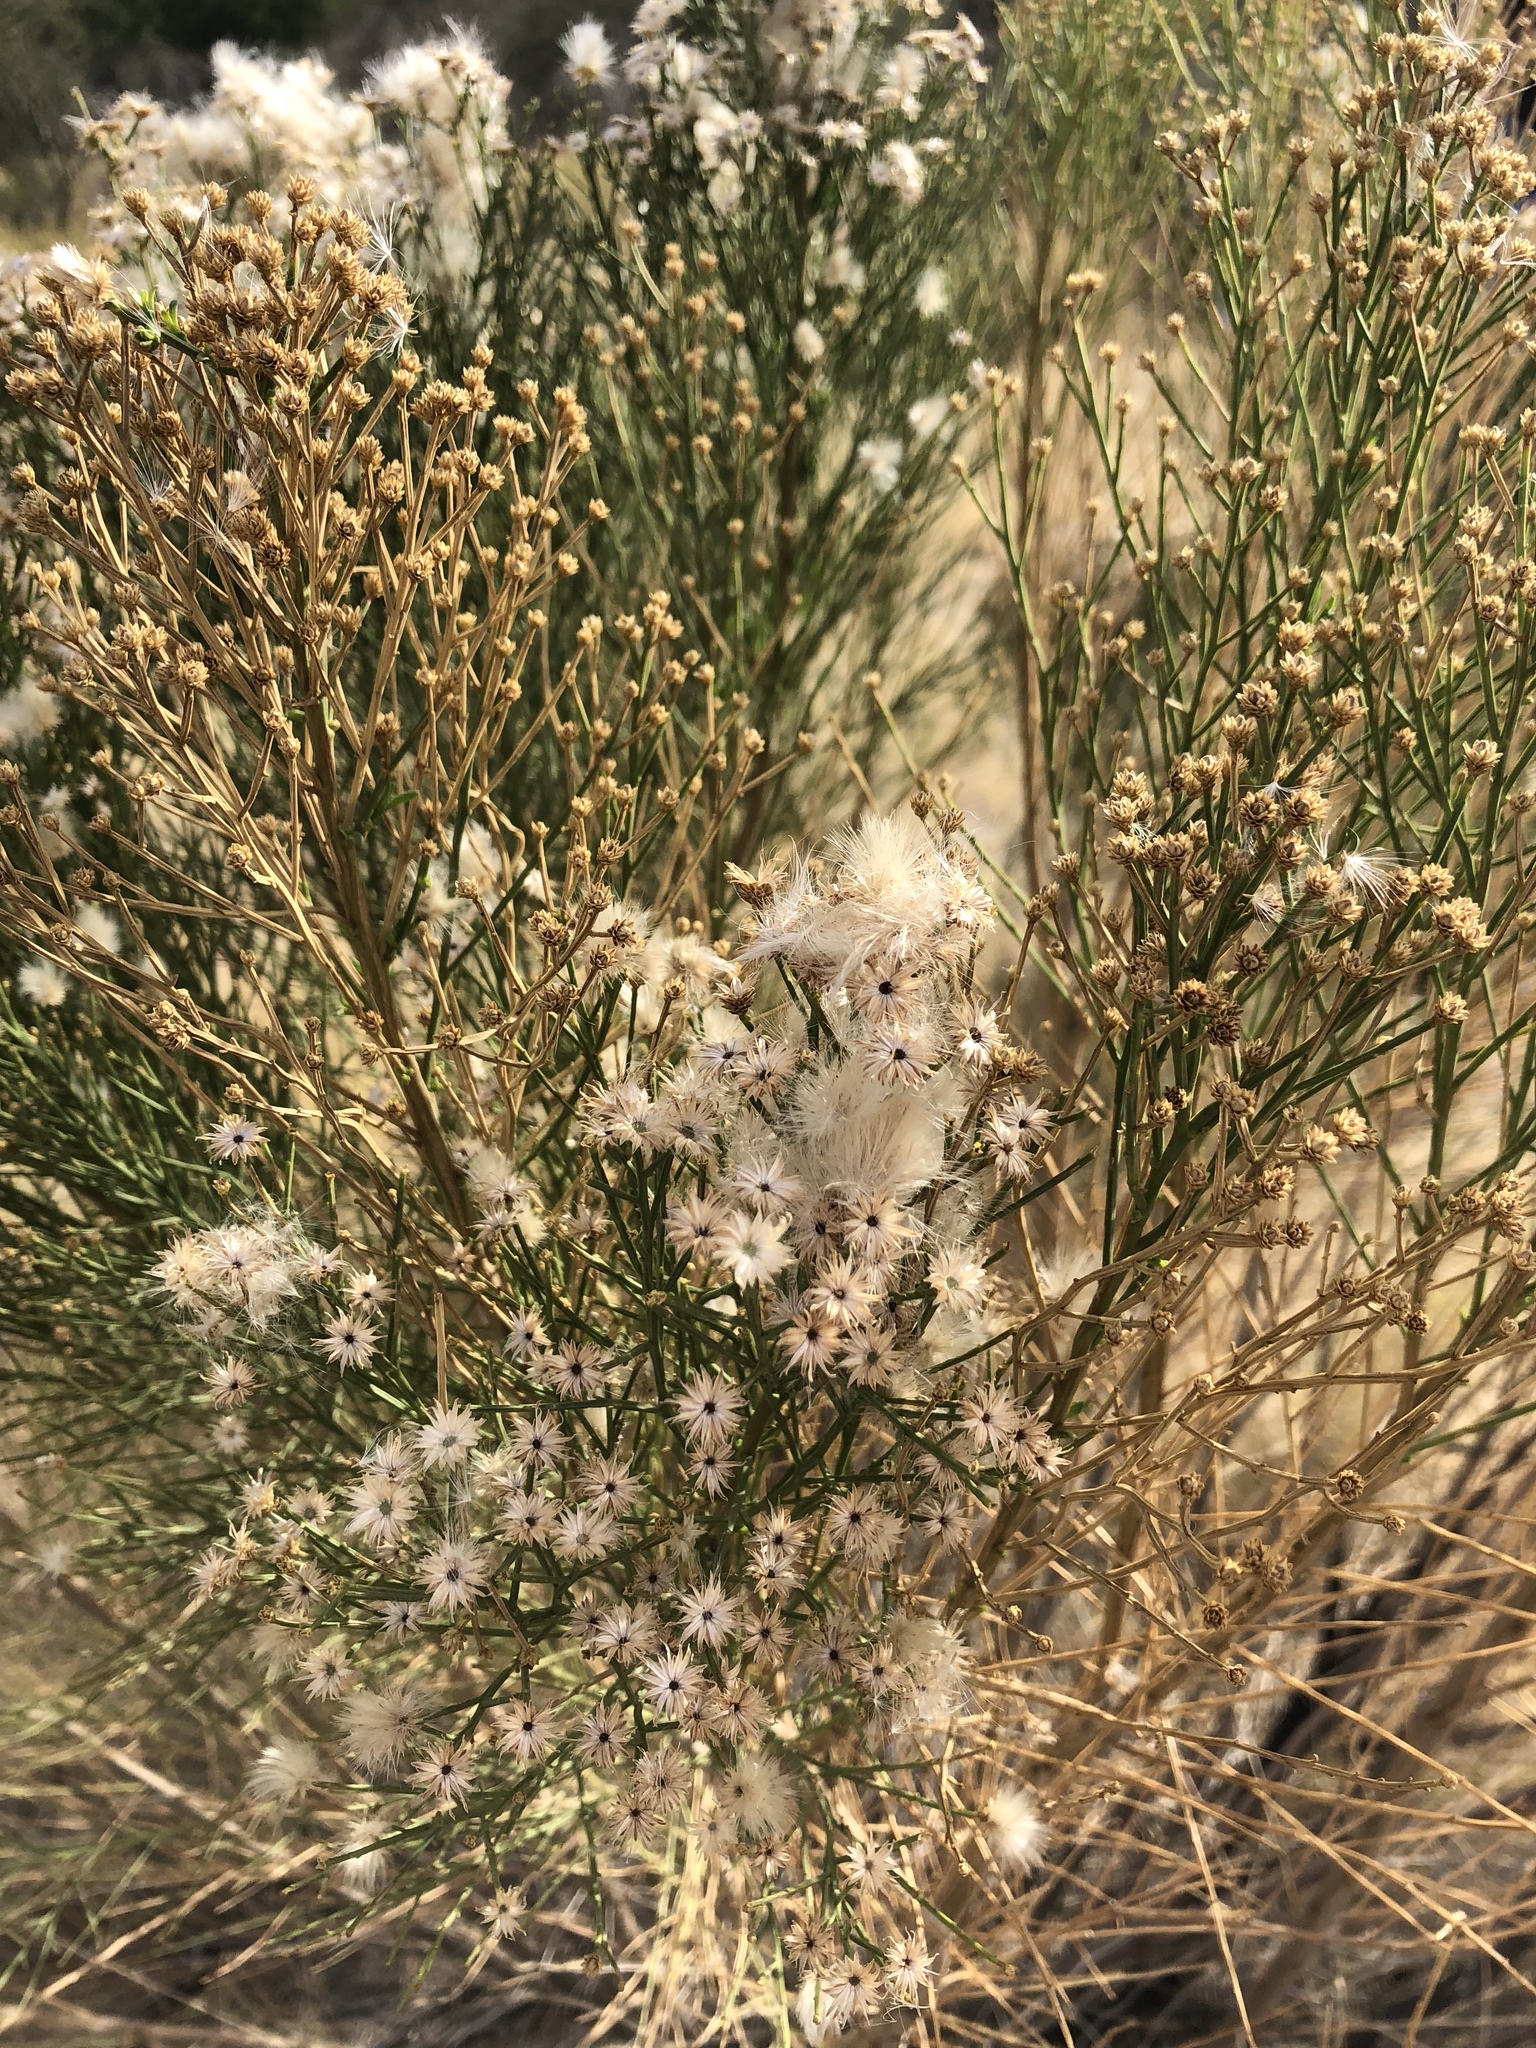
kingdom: Plantae
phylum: Tracheophyta
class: Magnoliopsida
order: Asterales
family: Asteraceae
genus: Baccharis
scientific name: Baccharis sarothroides
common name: Desert-broom
